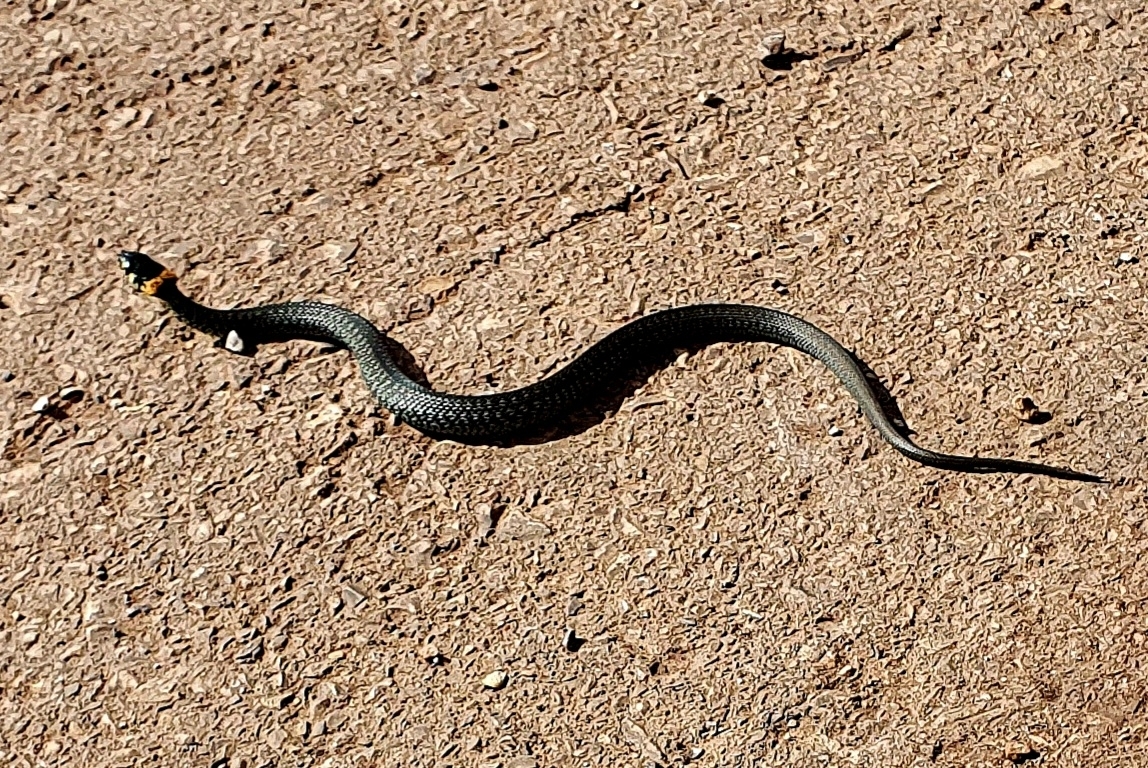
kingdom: Animalia
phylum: Chordata
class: Squamata
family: Colubridae
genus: Natrix
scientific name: Natrix natrix
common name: Grass snake
